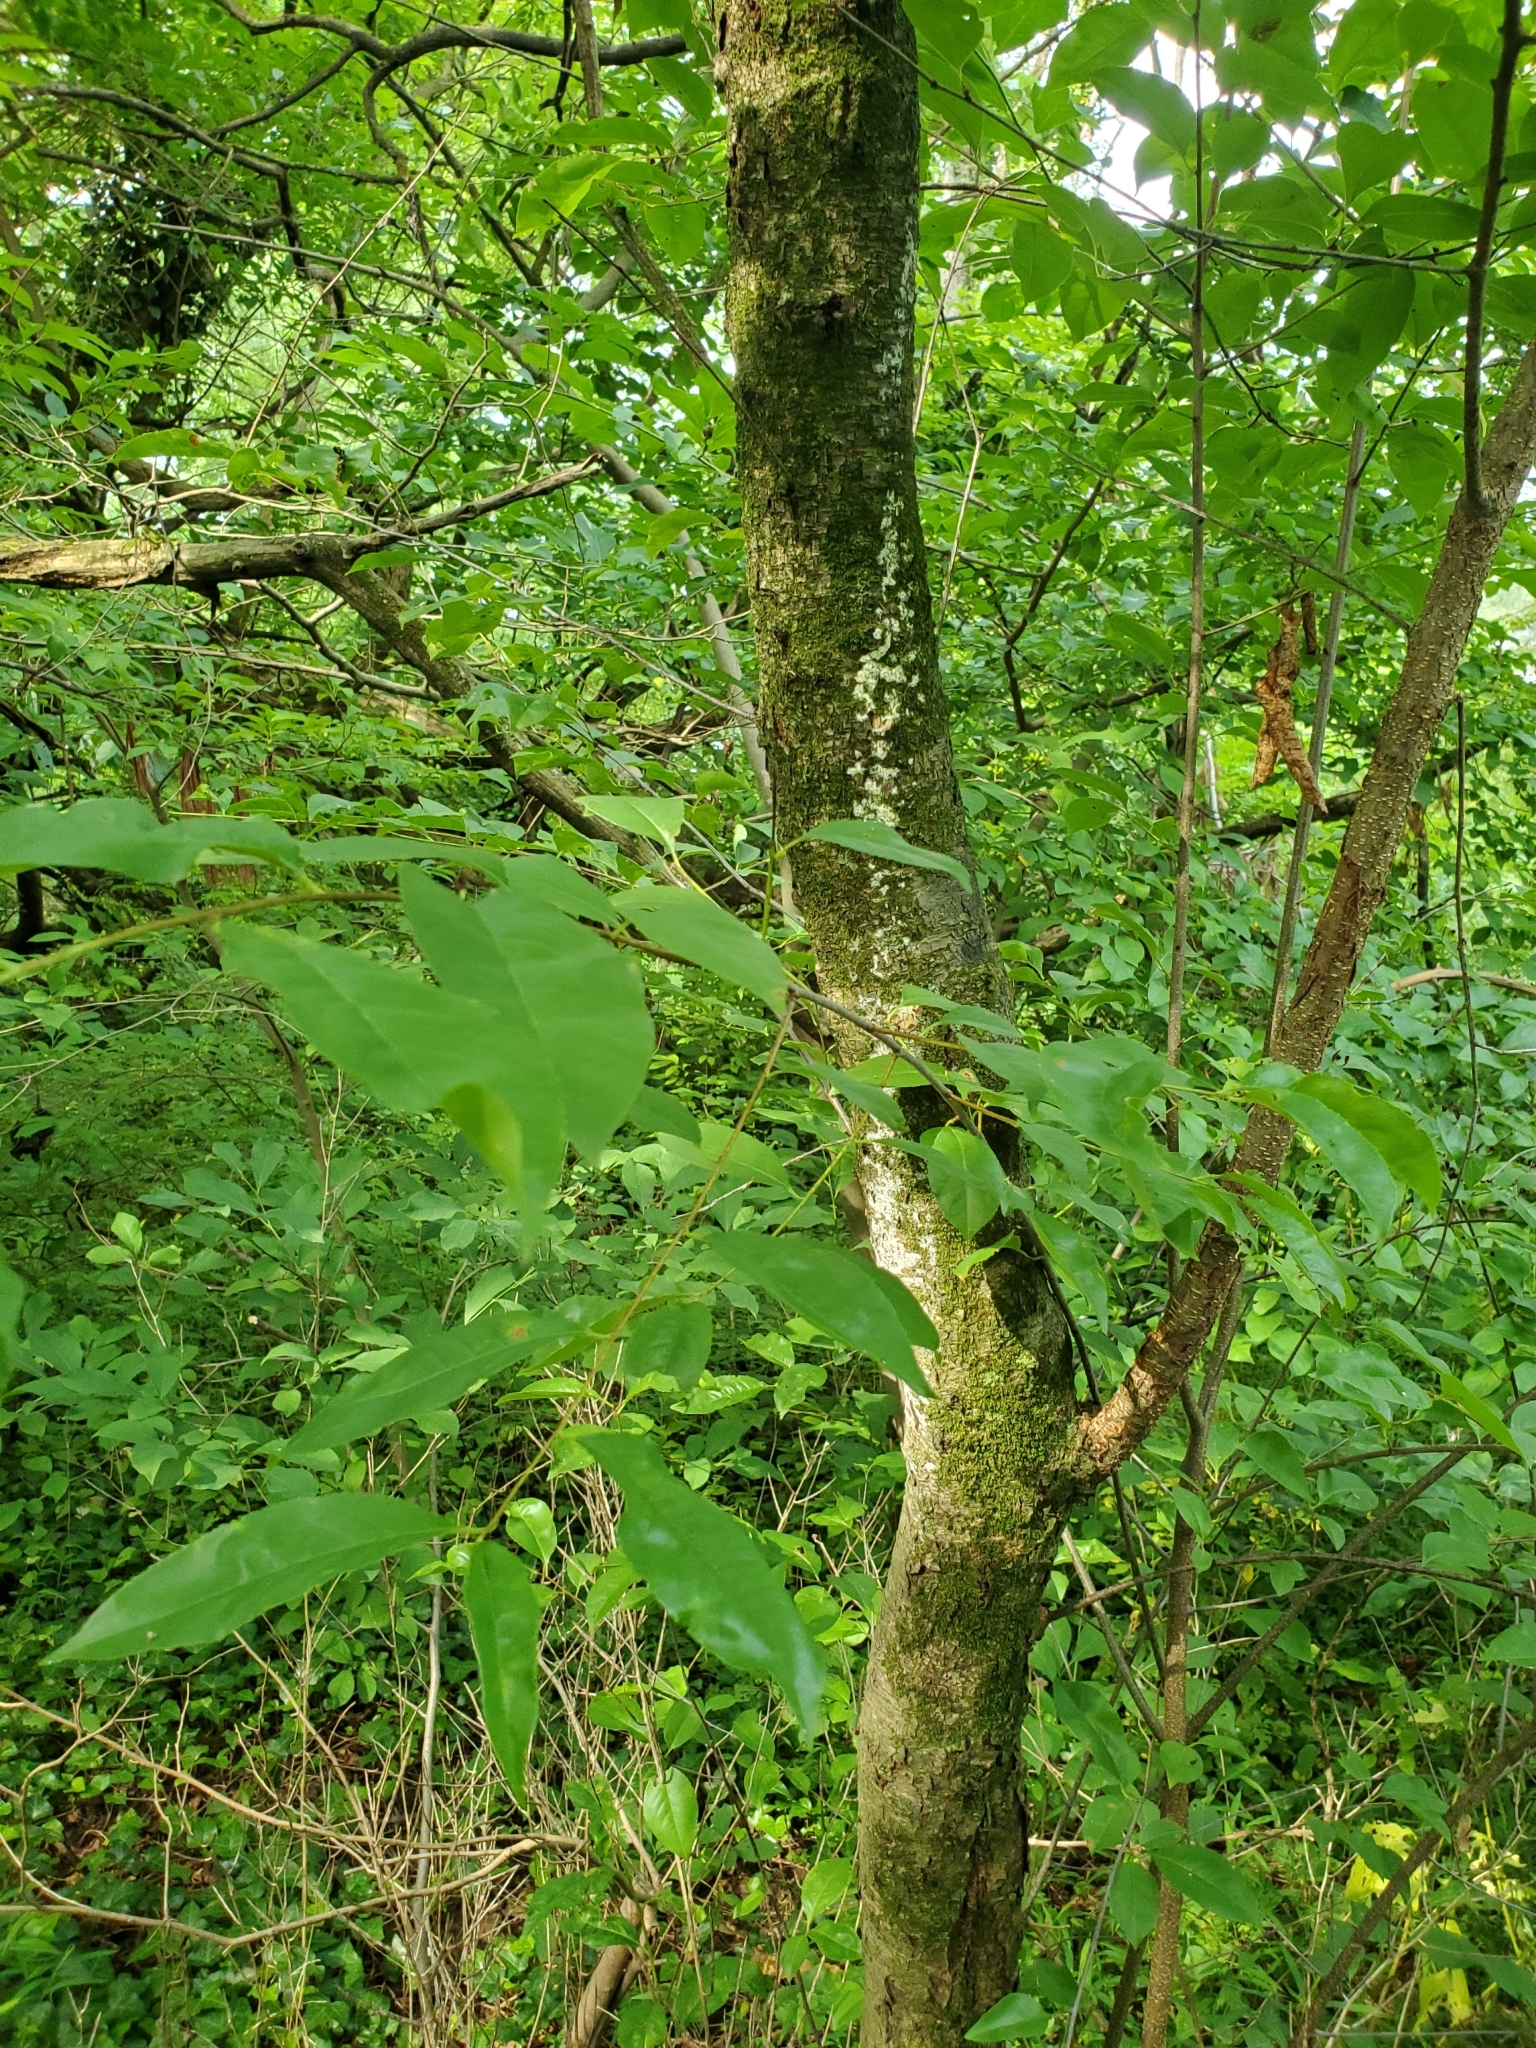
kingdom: Plantae
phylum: Tracheophyta
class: Magnoliopsida
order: Rosales
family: Rosaceae
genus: Prunus
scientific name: Prunus serotina
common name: Black cherry
